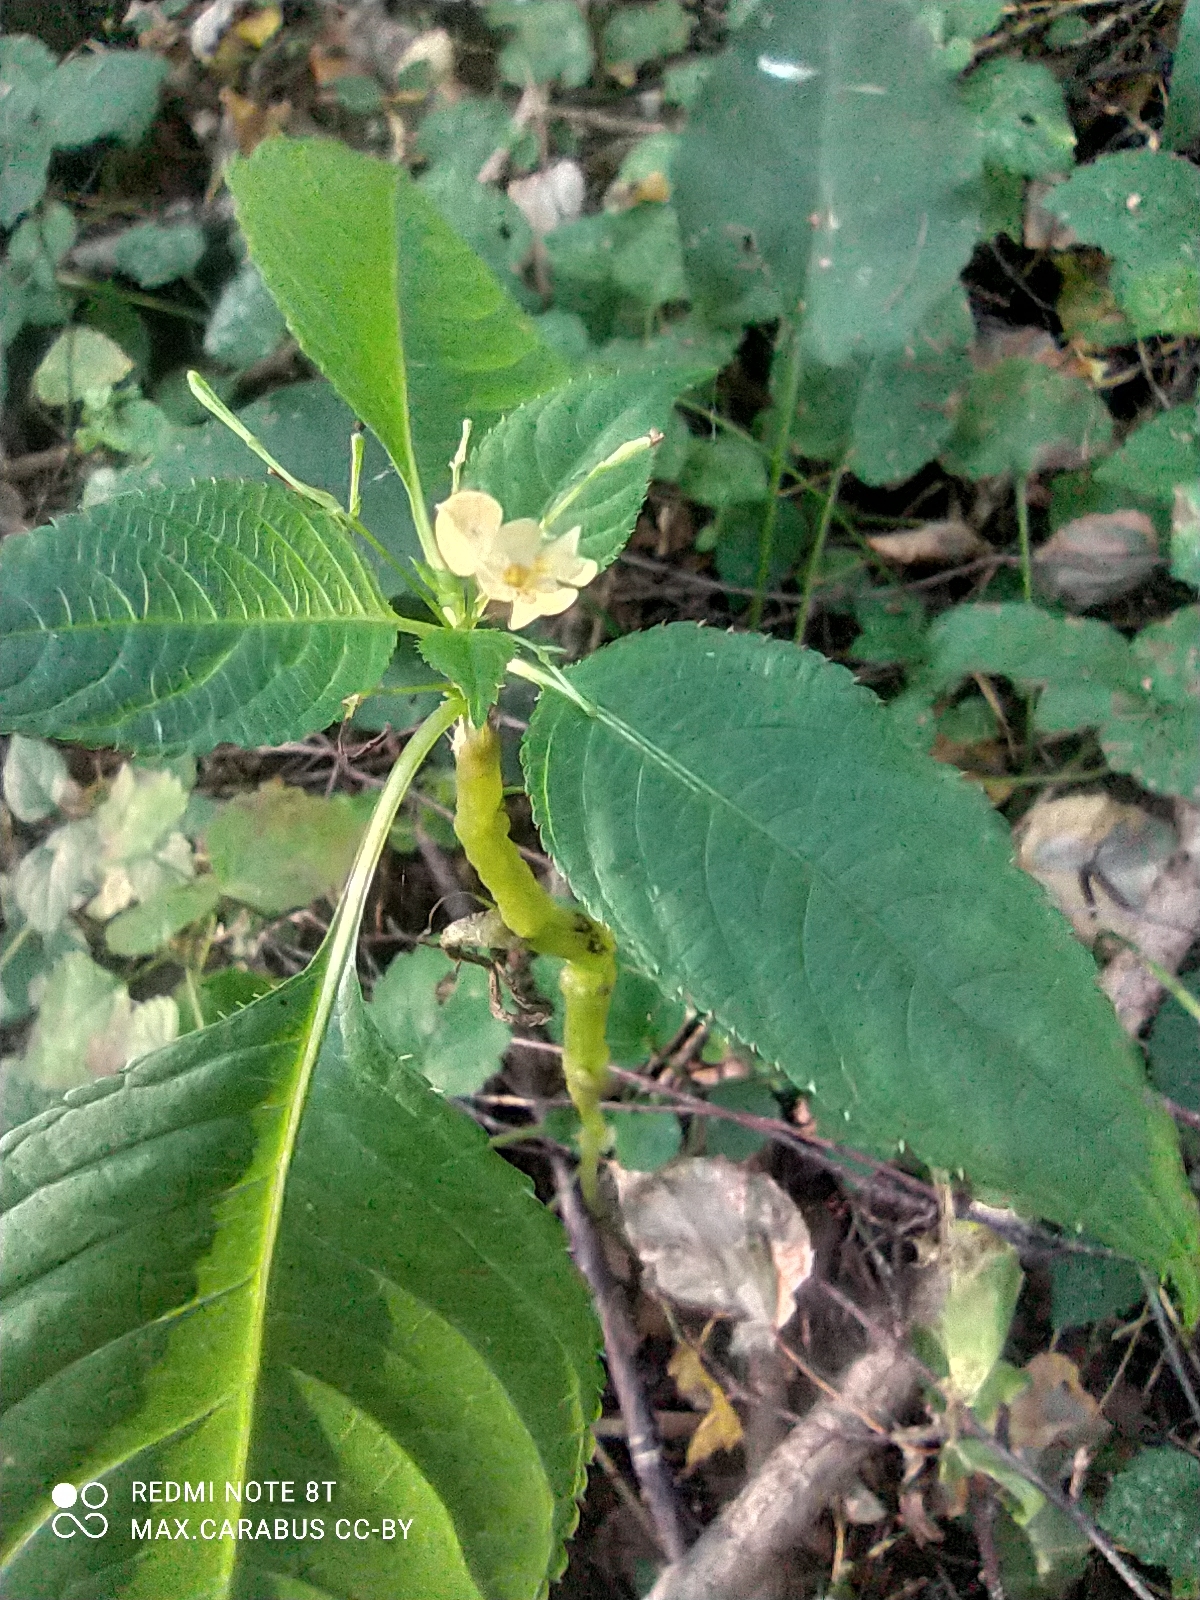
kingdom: Plantae
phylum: Tracheophyta
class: Magnoliopsida
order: Ericales
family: Balsaminaceae
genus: Impatiens
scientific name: Impatiens parviflora
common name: Small balsam
